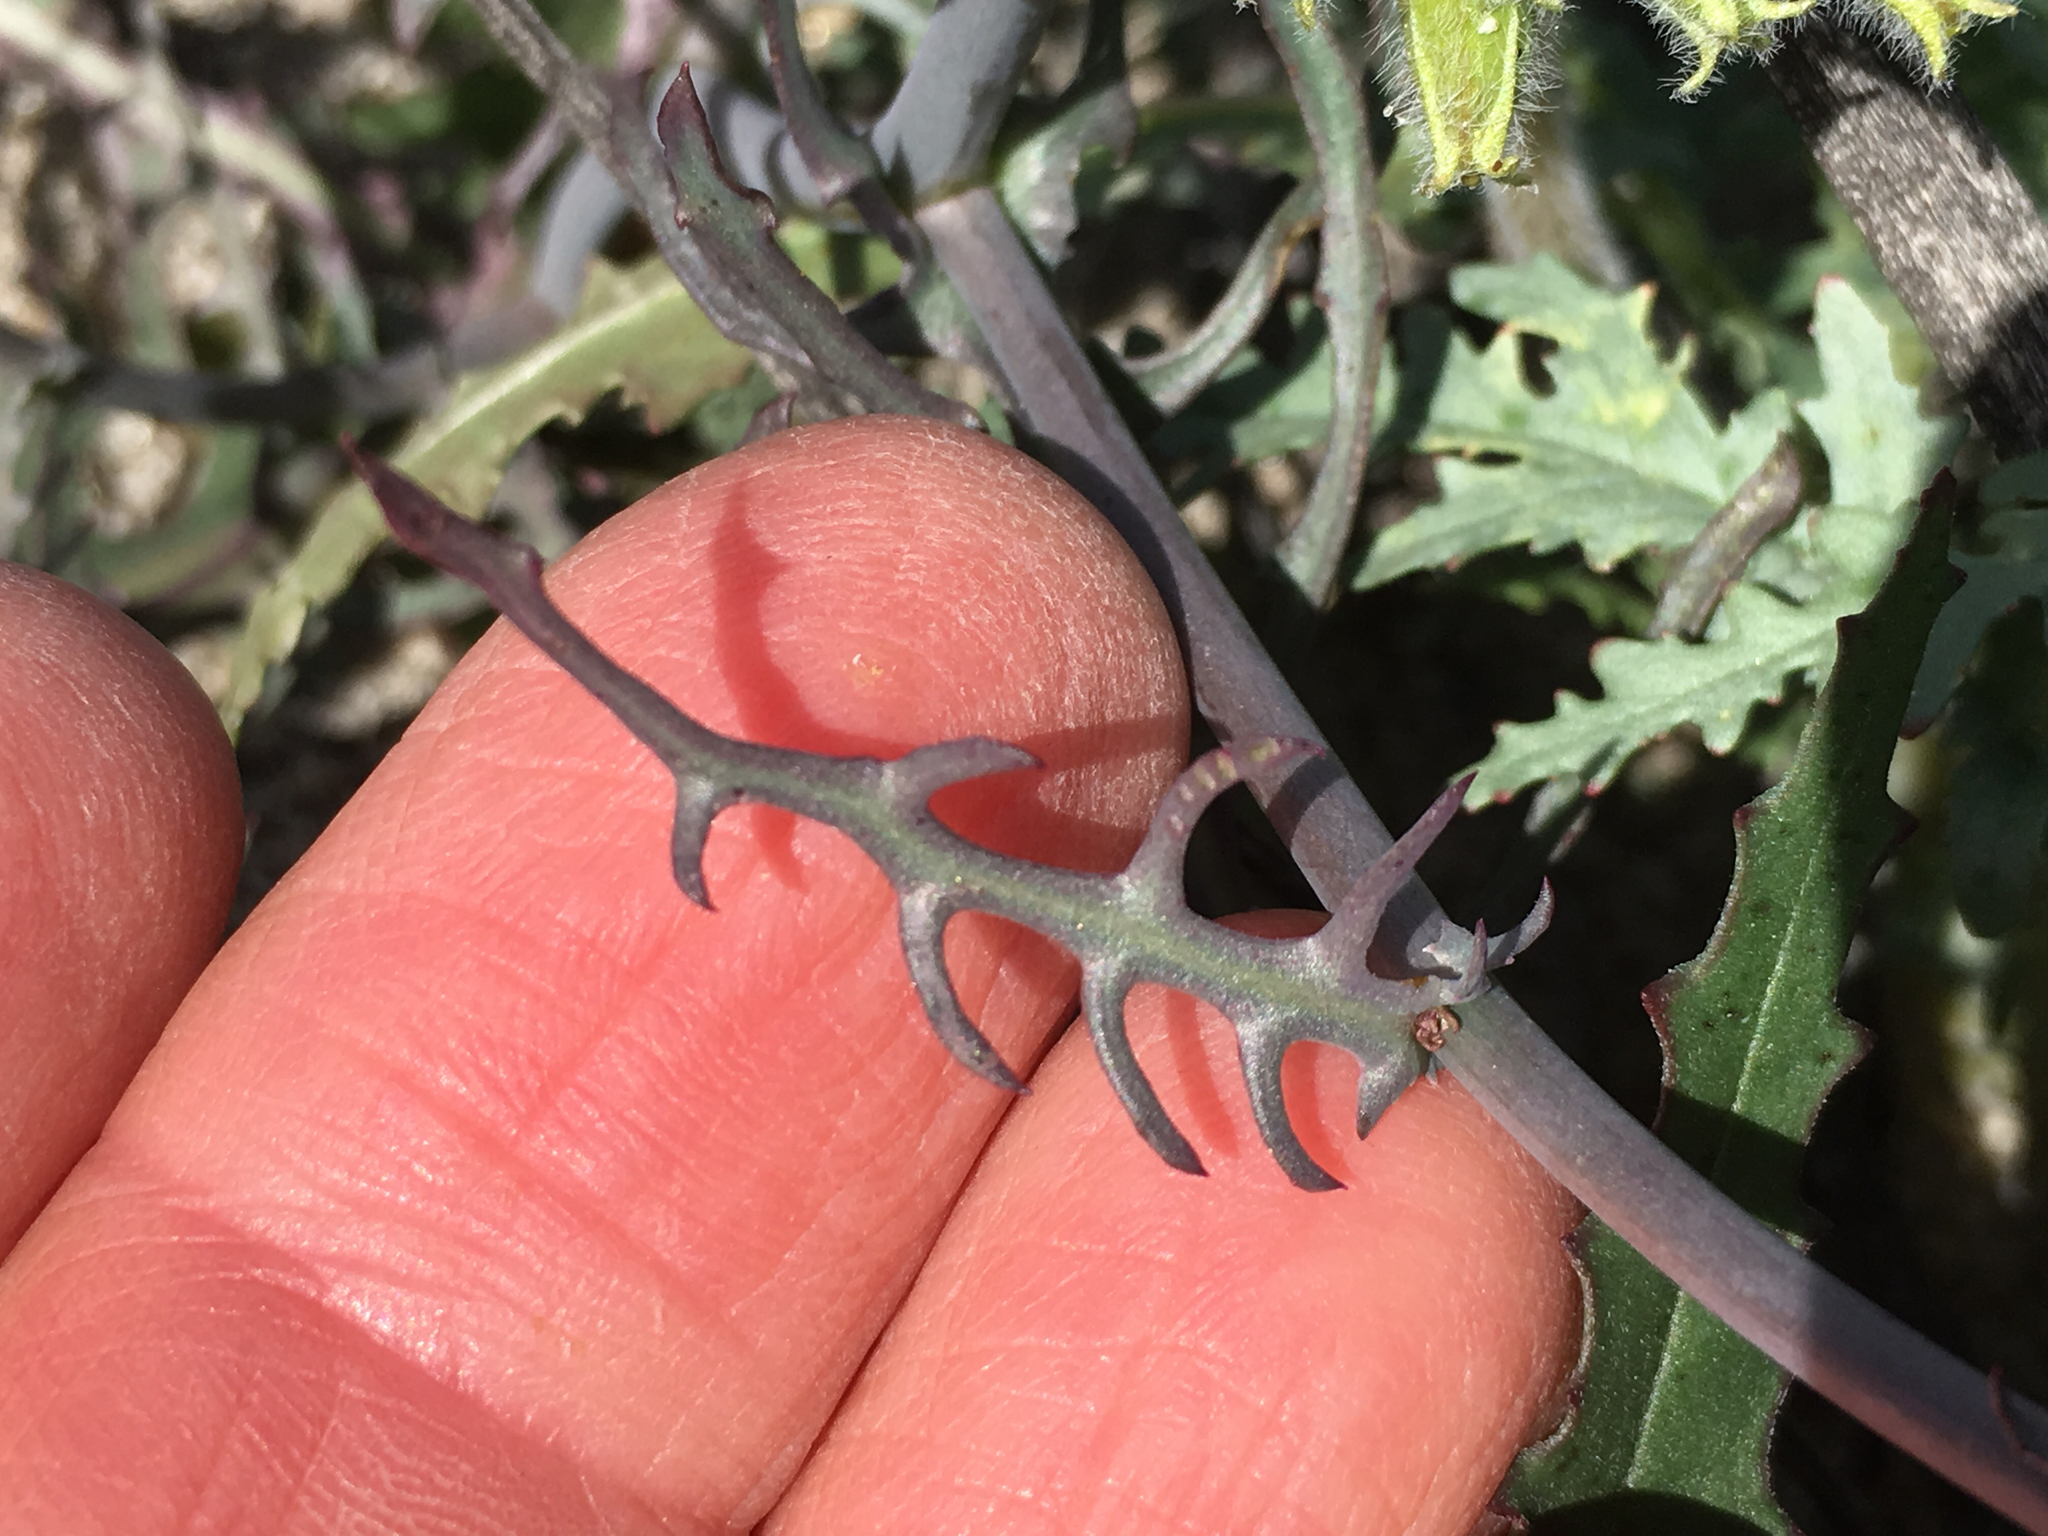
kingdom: Plantae
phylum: Tracheophyta
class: Magnoliopsida
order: Asterales
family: Asteraceae
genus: Rafinesquia
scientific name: Rafinesquia neomexicana
